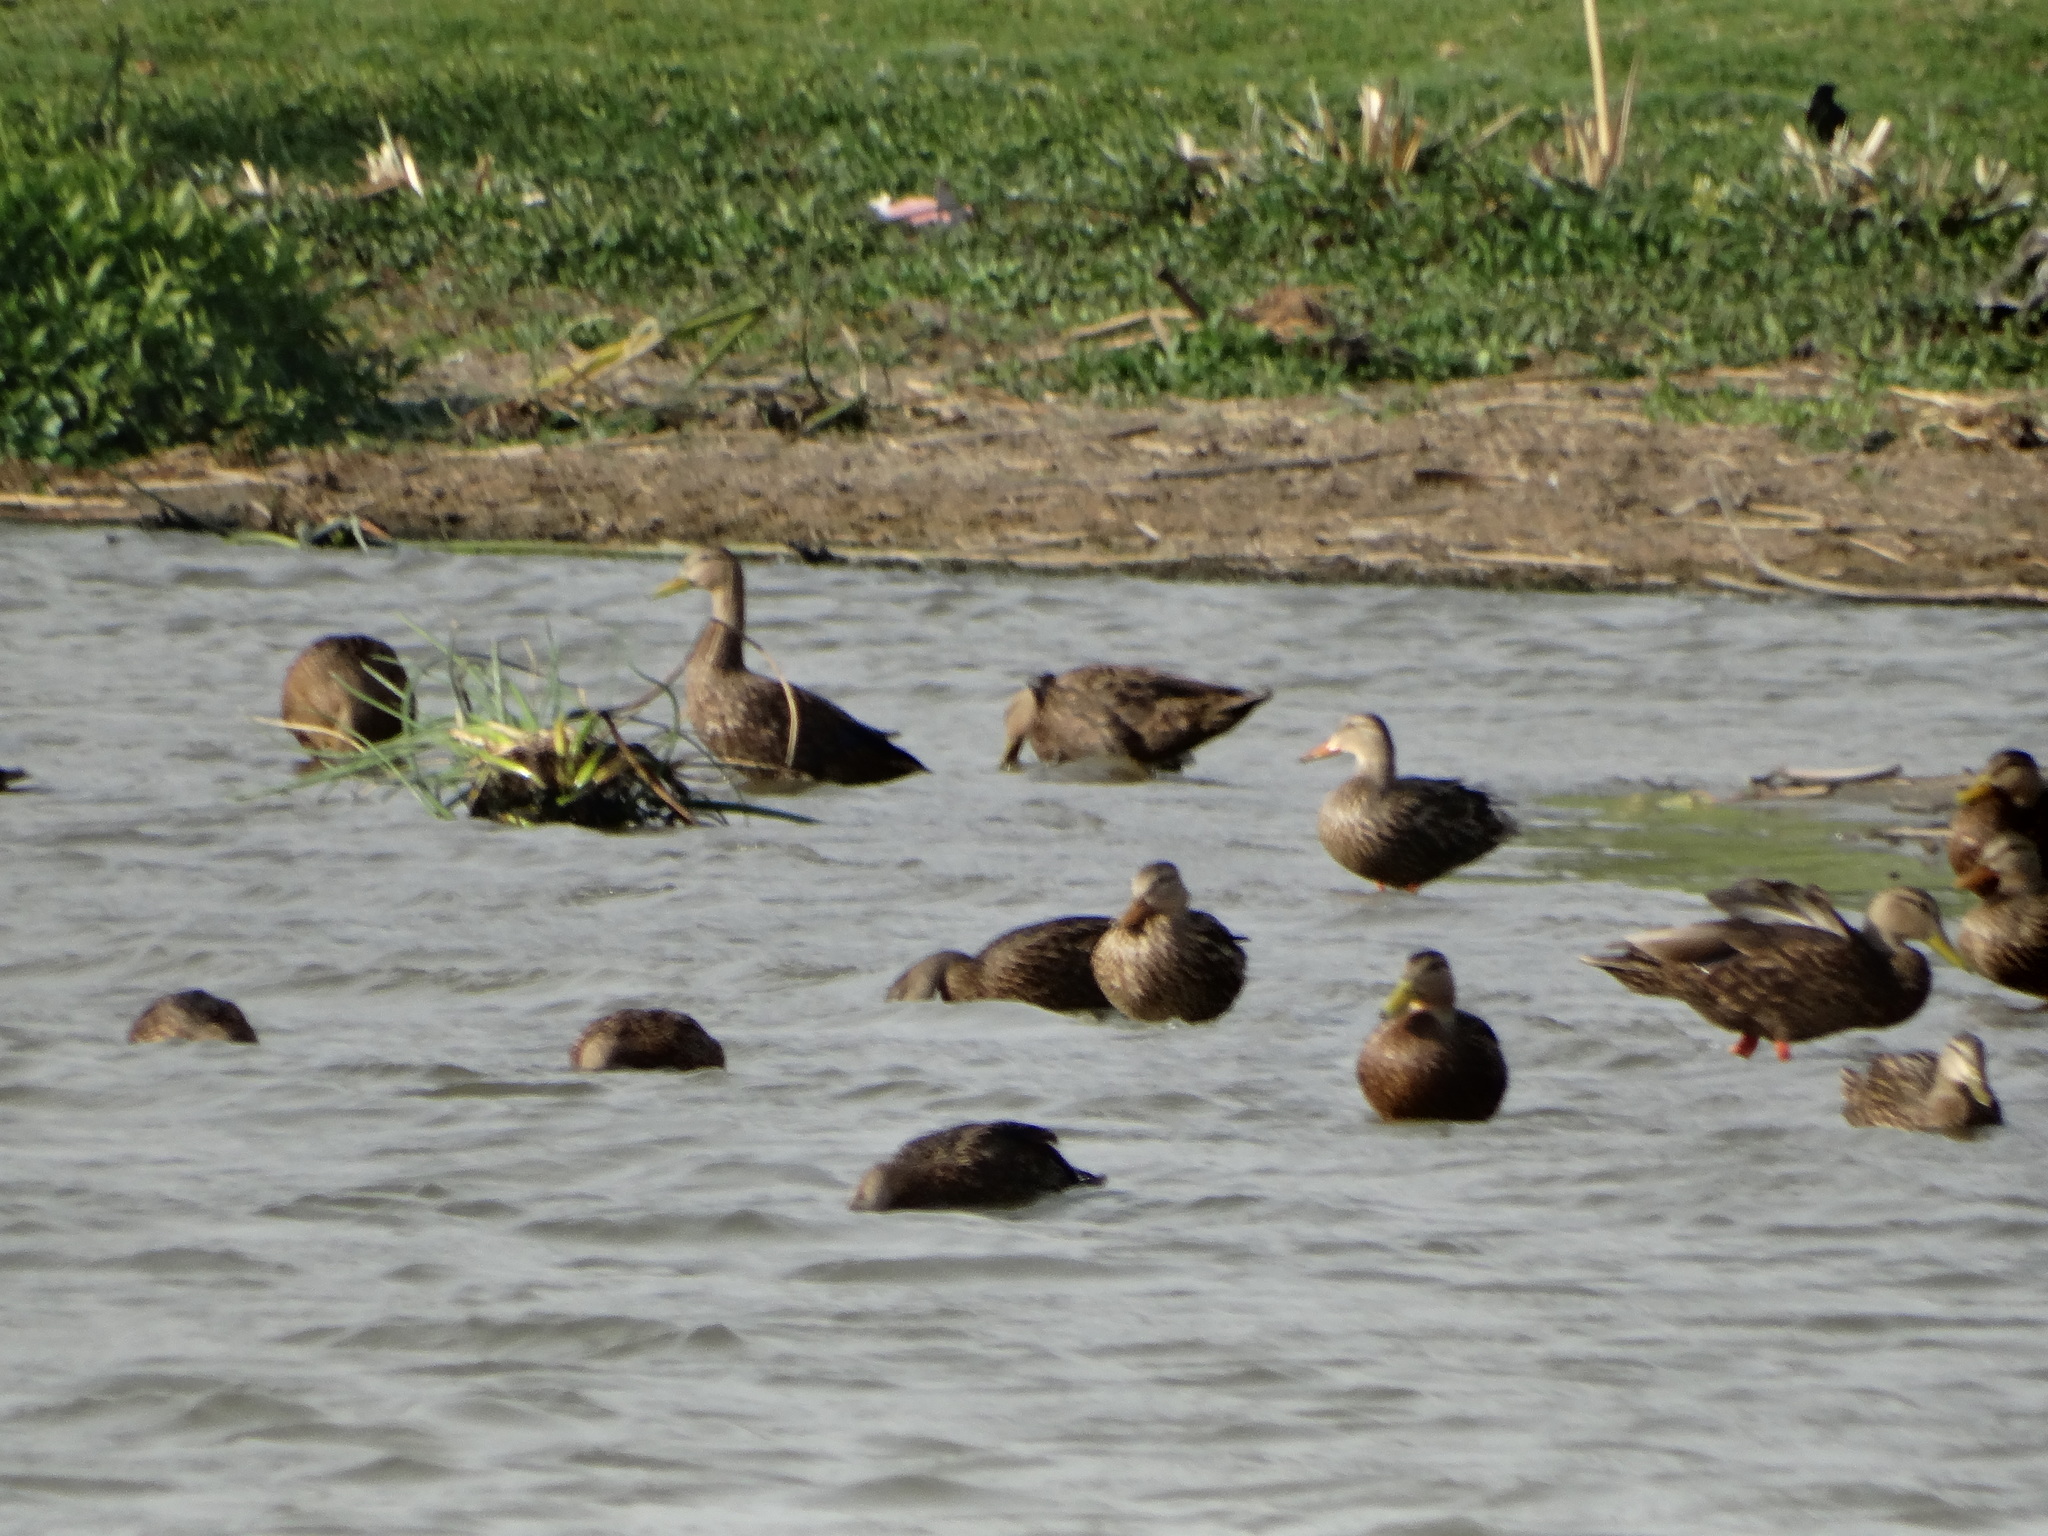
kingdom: Animalia
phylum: Chordata
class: Aves
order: Anseriformes
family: Anatidae
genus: Anas
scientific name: Anas diazi
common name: Mexican duck
